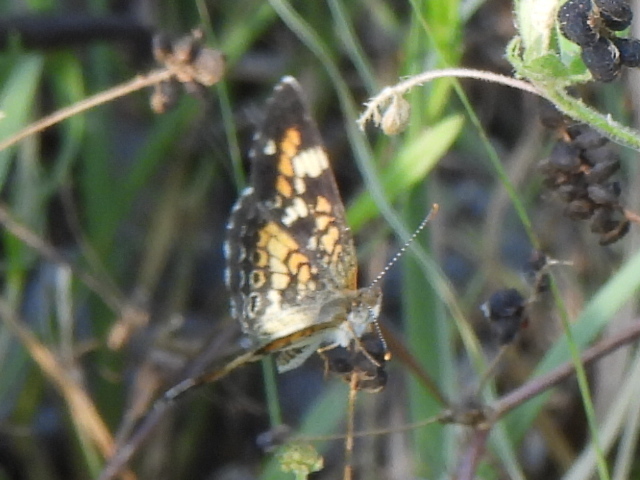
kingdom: Animalia
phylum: Arthropoda
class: Insecta
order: Lepidoptera
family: Nymphalidae
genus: Phyciodes
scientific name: Phyciodes phaon
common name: Phaon crescent
